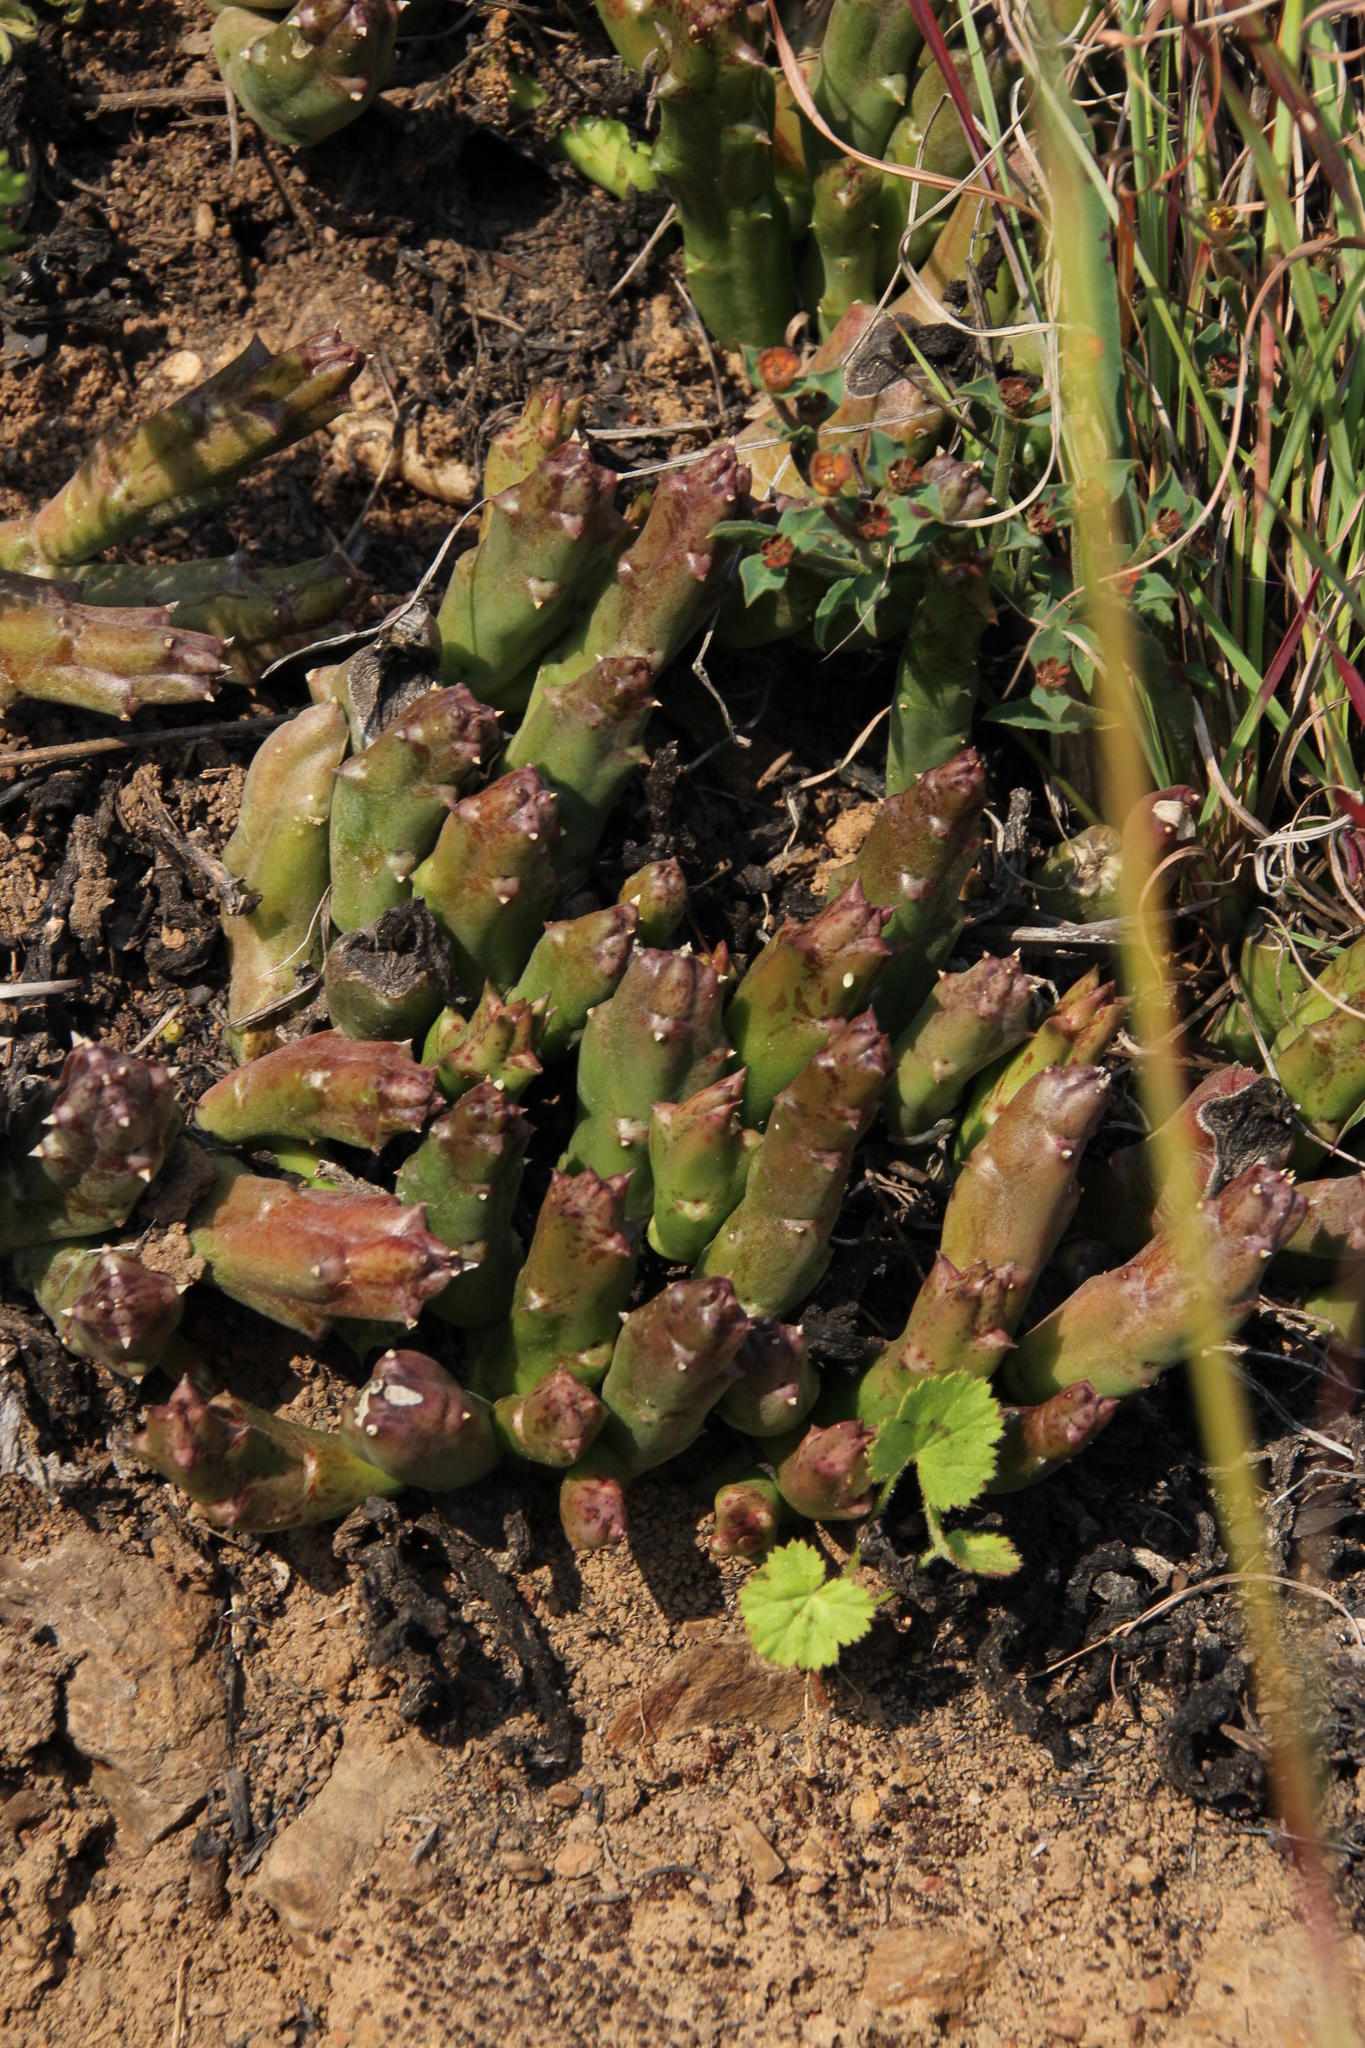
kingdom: Plantae
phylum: Tracheophyta
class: Magnoliopsida
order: Gentianales
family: Apocynaceae
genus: Ceropegia
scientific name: Ceropegia mixta
